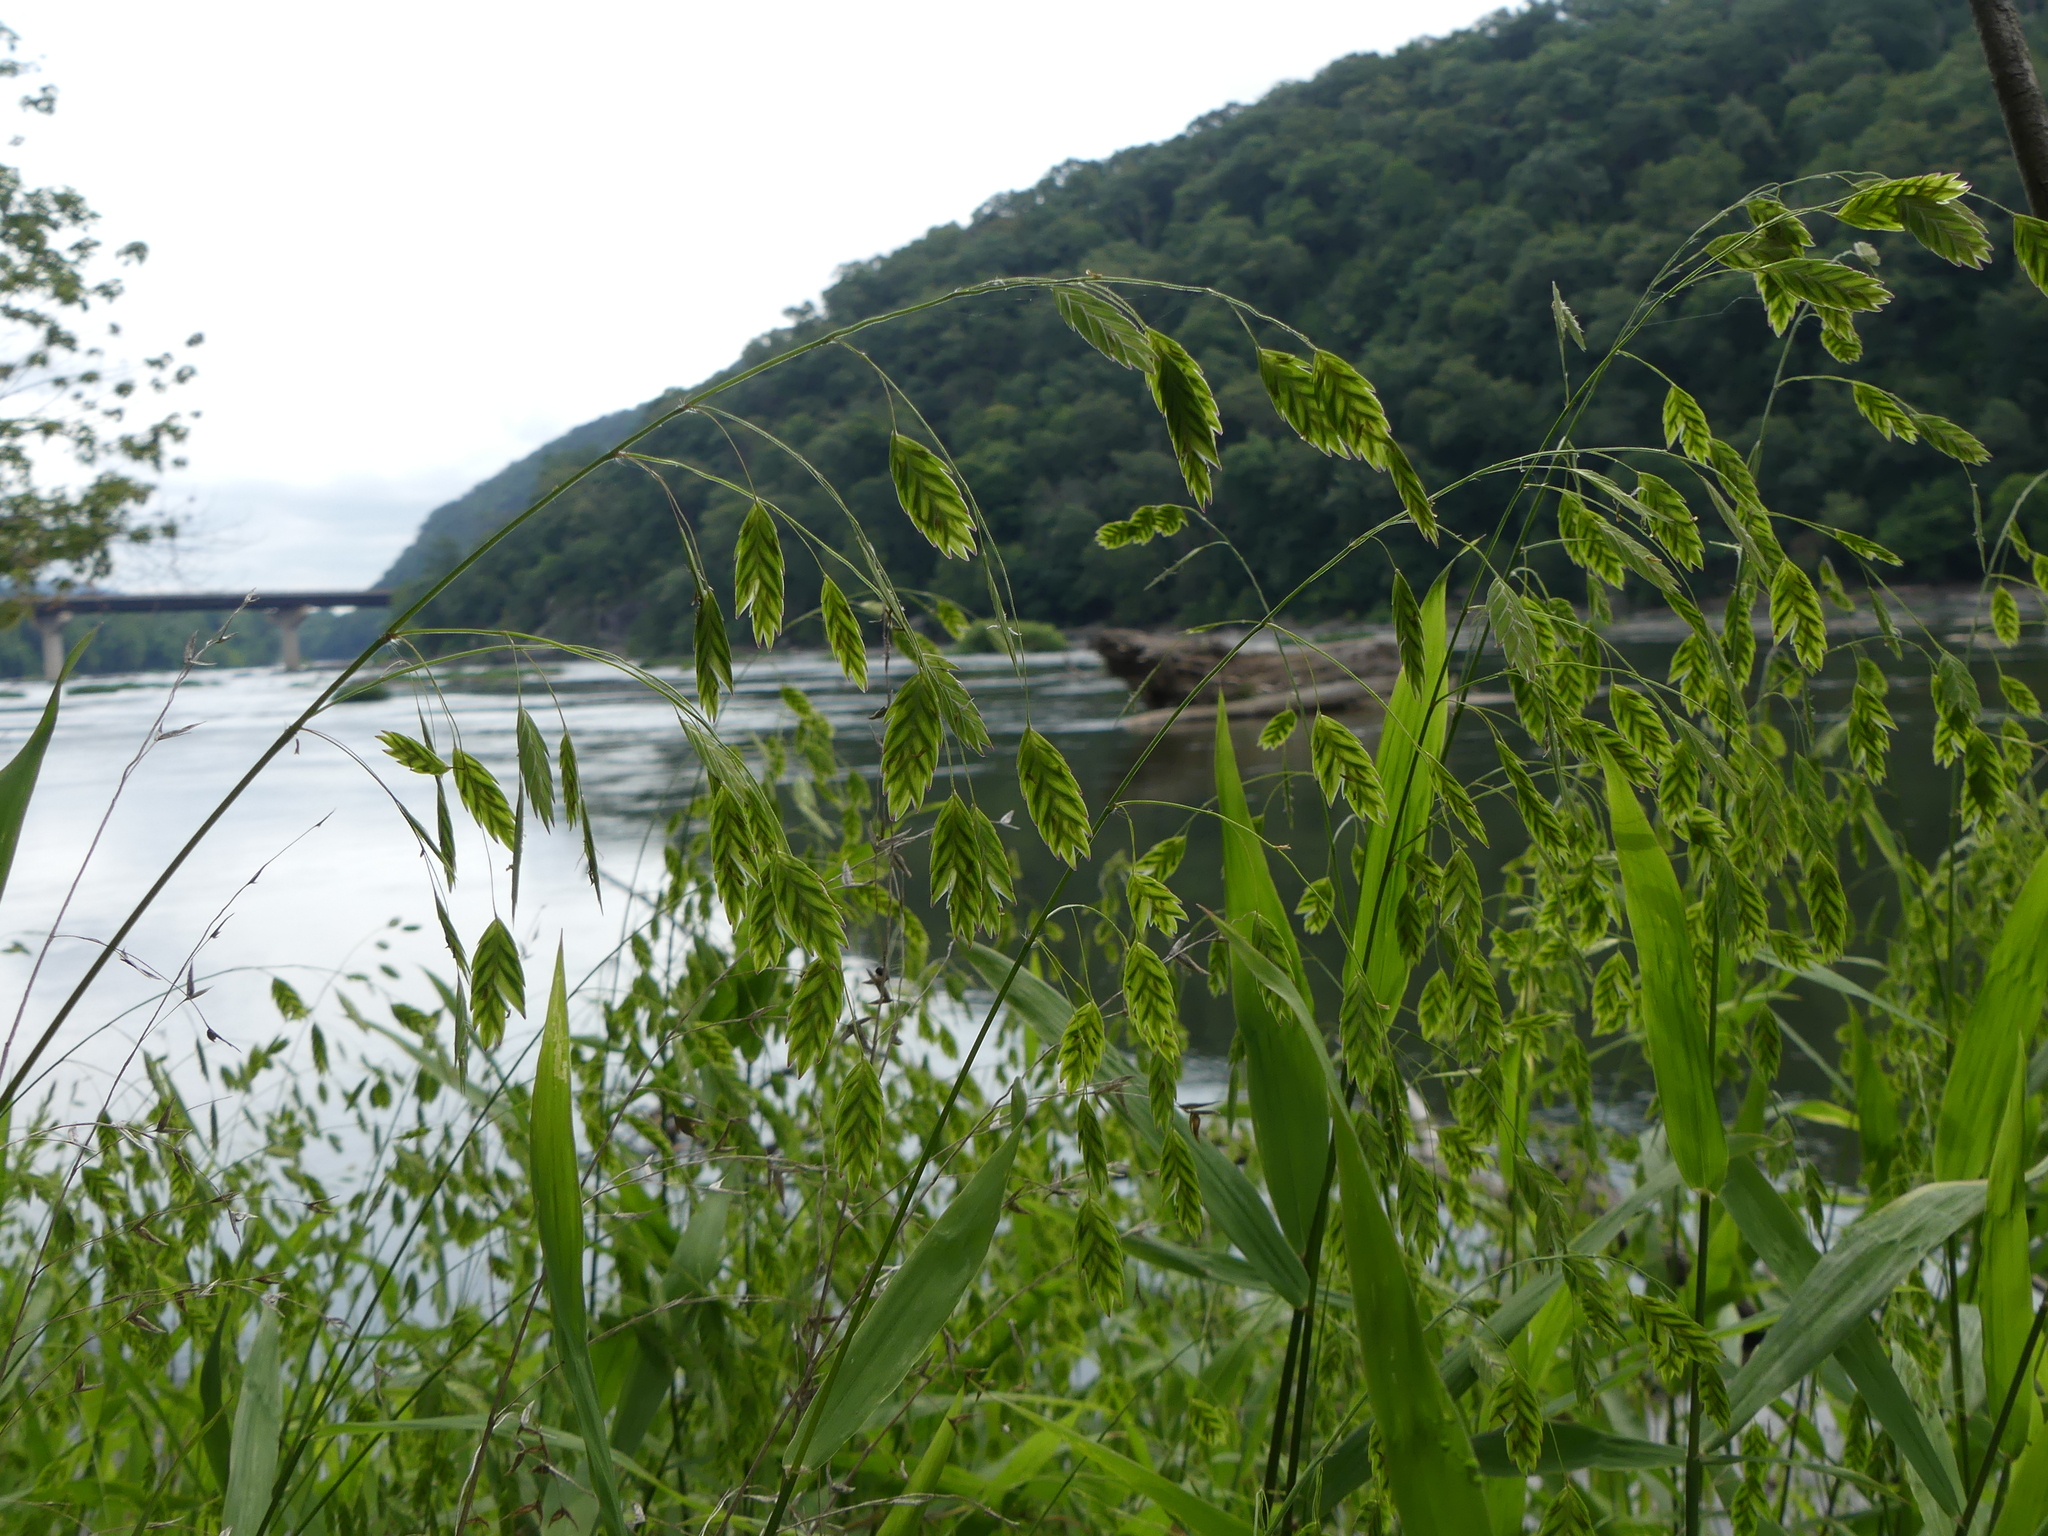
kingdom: Plantae
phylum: Tracheophyta
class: Liliopsida
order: Poales
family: Poaceae
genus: Chasmanthium
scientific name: Chasmanthium latifolium
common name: Broad-leaved chasmanthium
